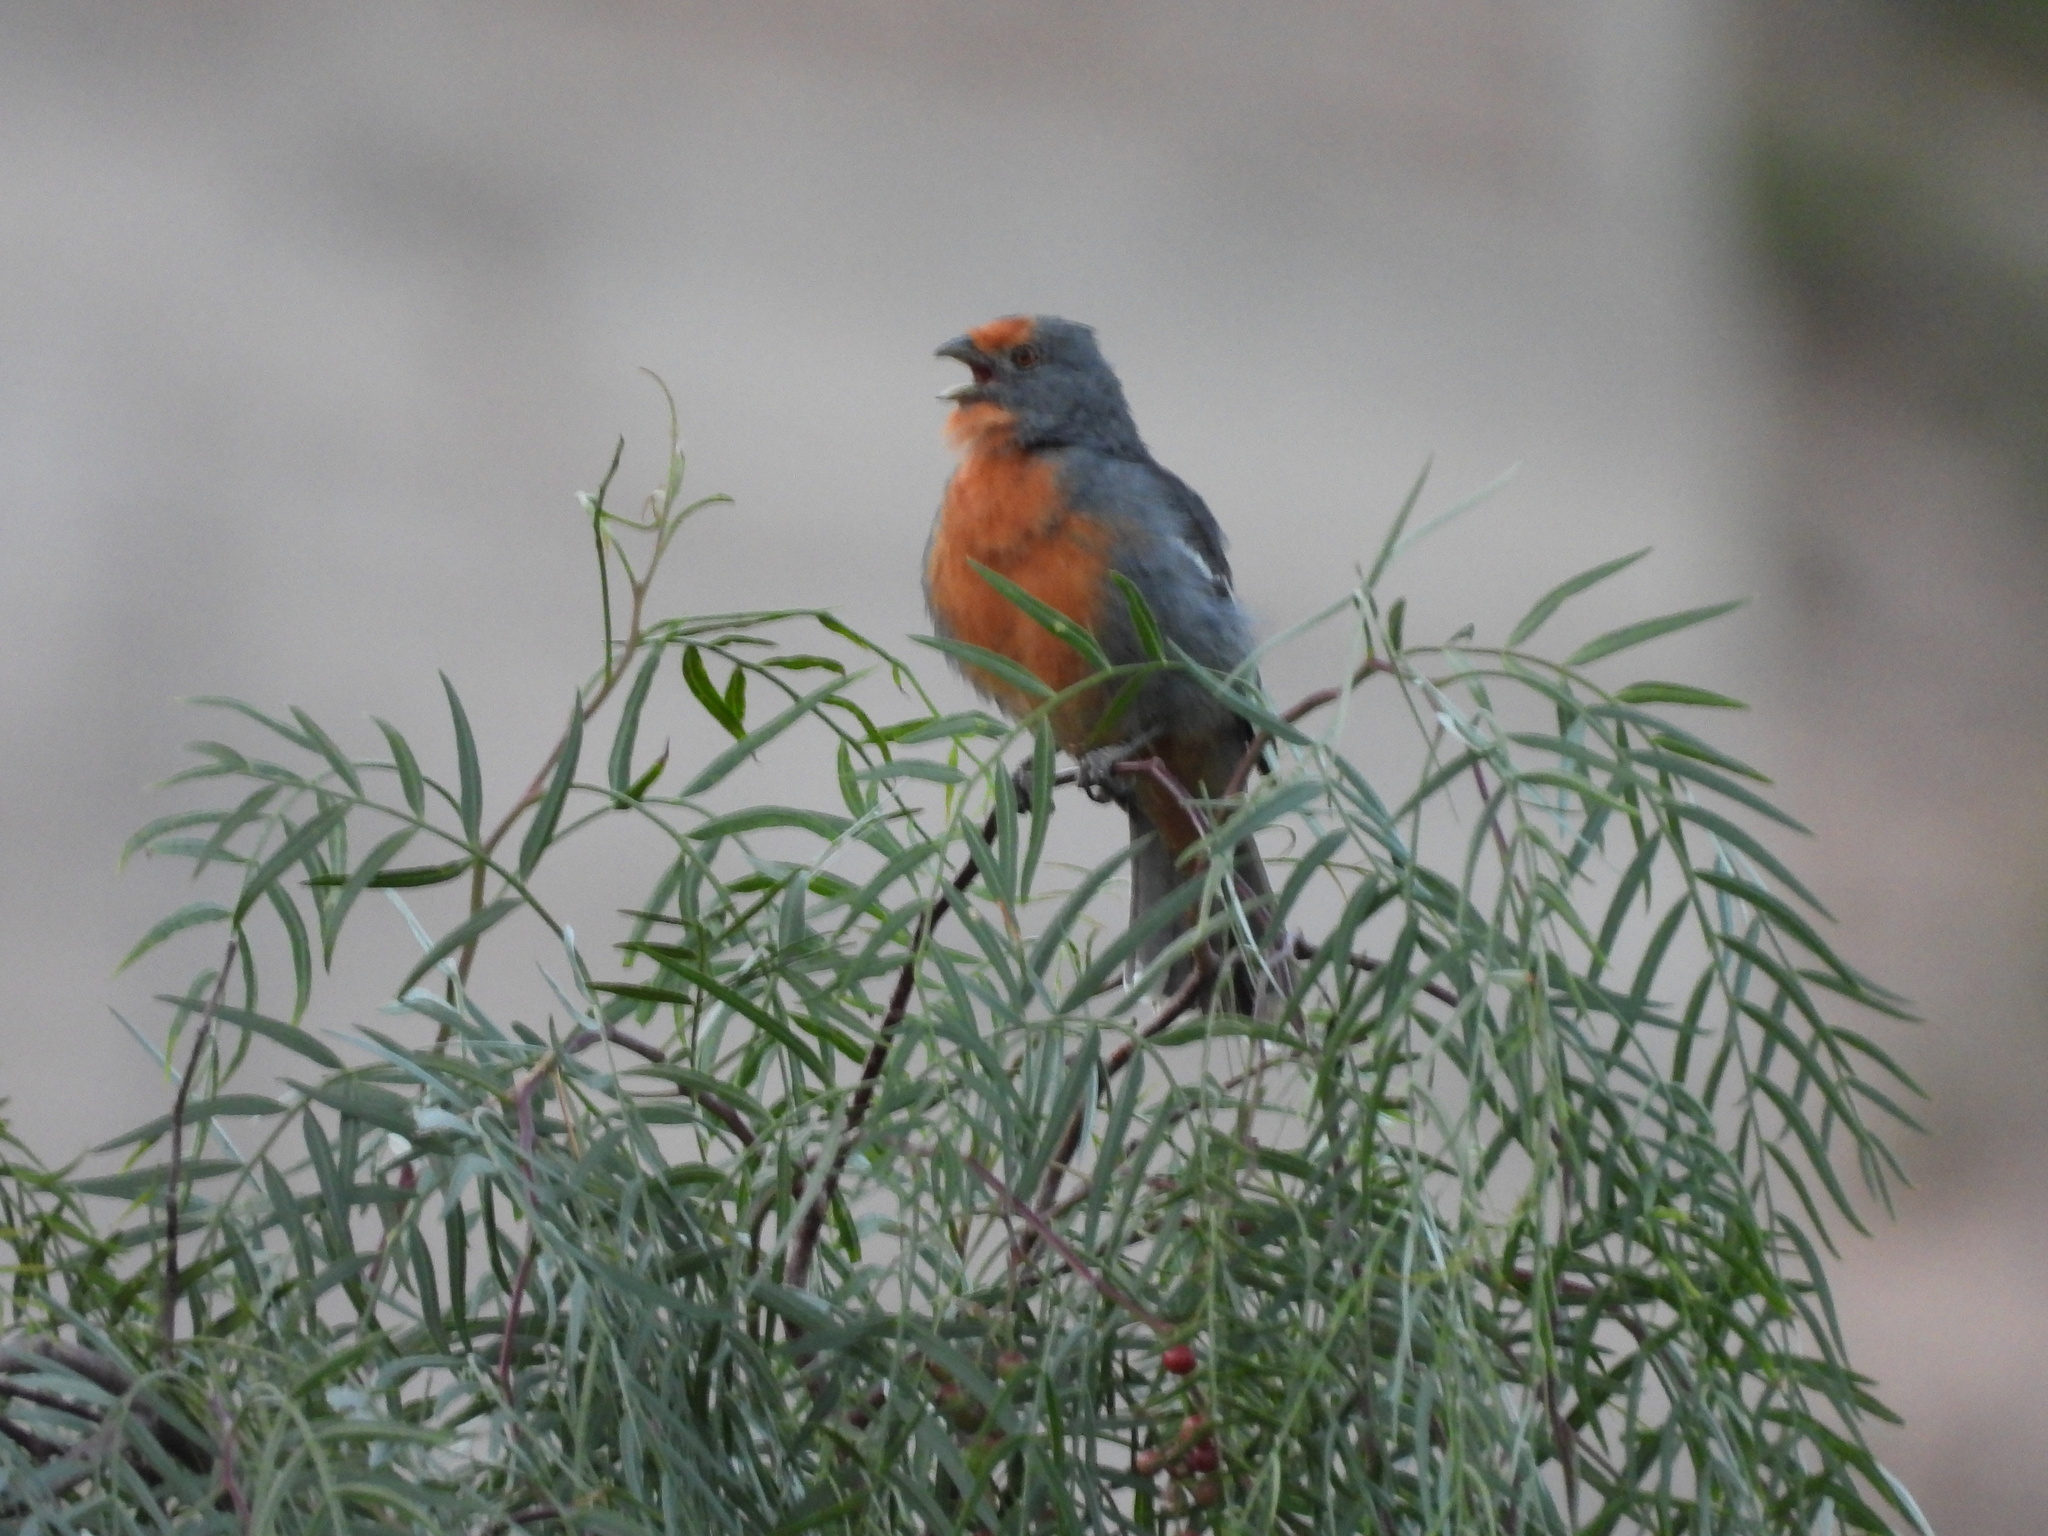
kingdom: Animalia
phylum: Chordata
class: Aves
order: Passeriformes
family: Cotingidae
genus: Phytotoma
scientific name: Phytotoma rutila
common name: White-tipped plantcutter
